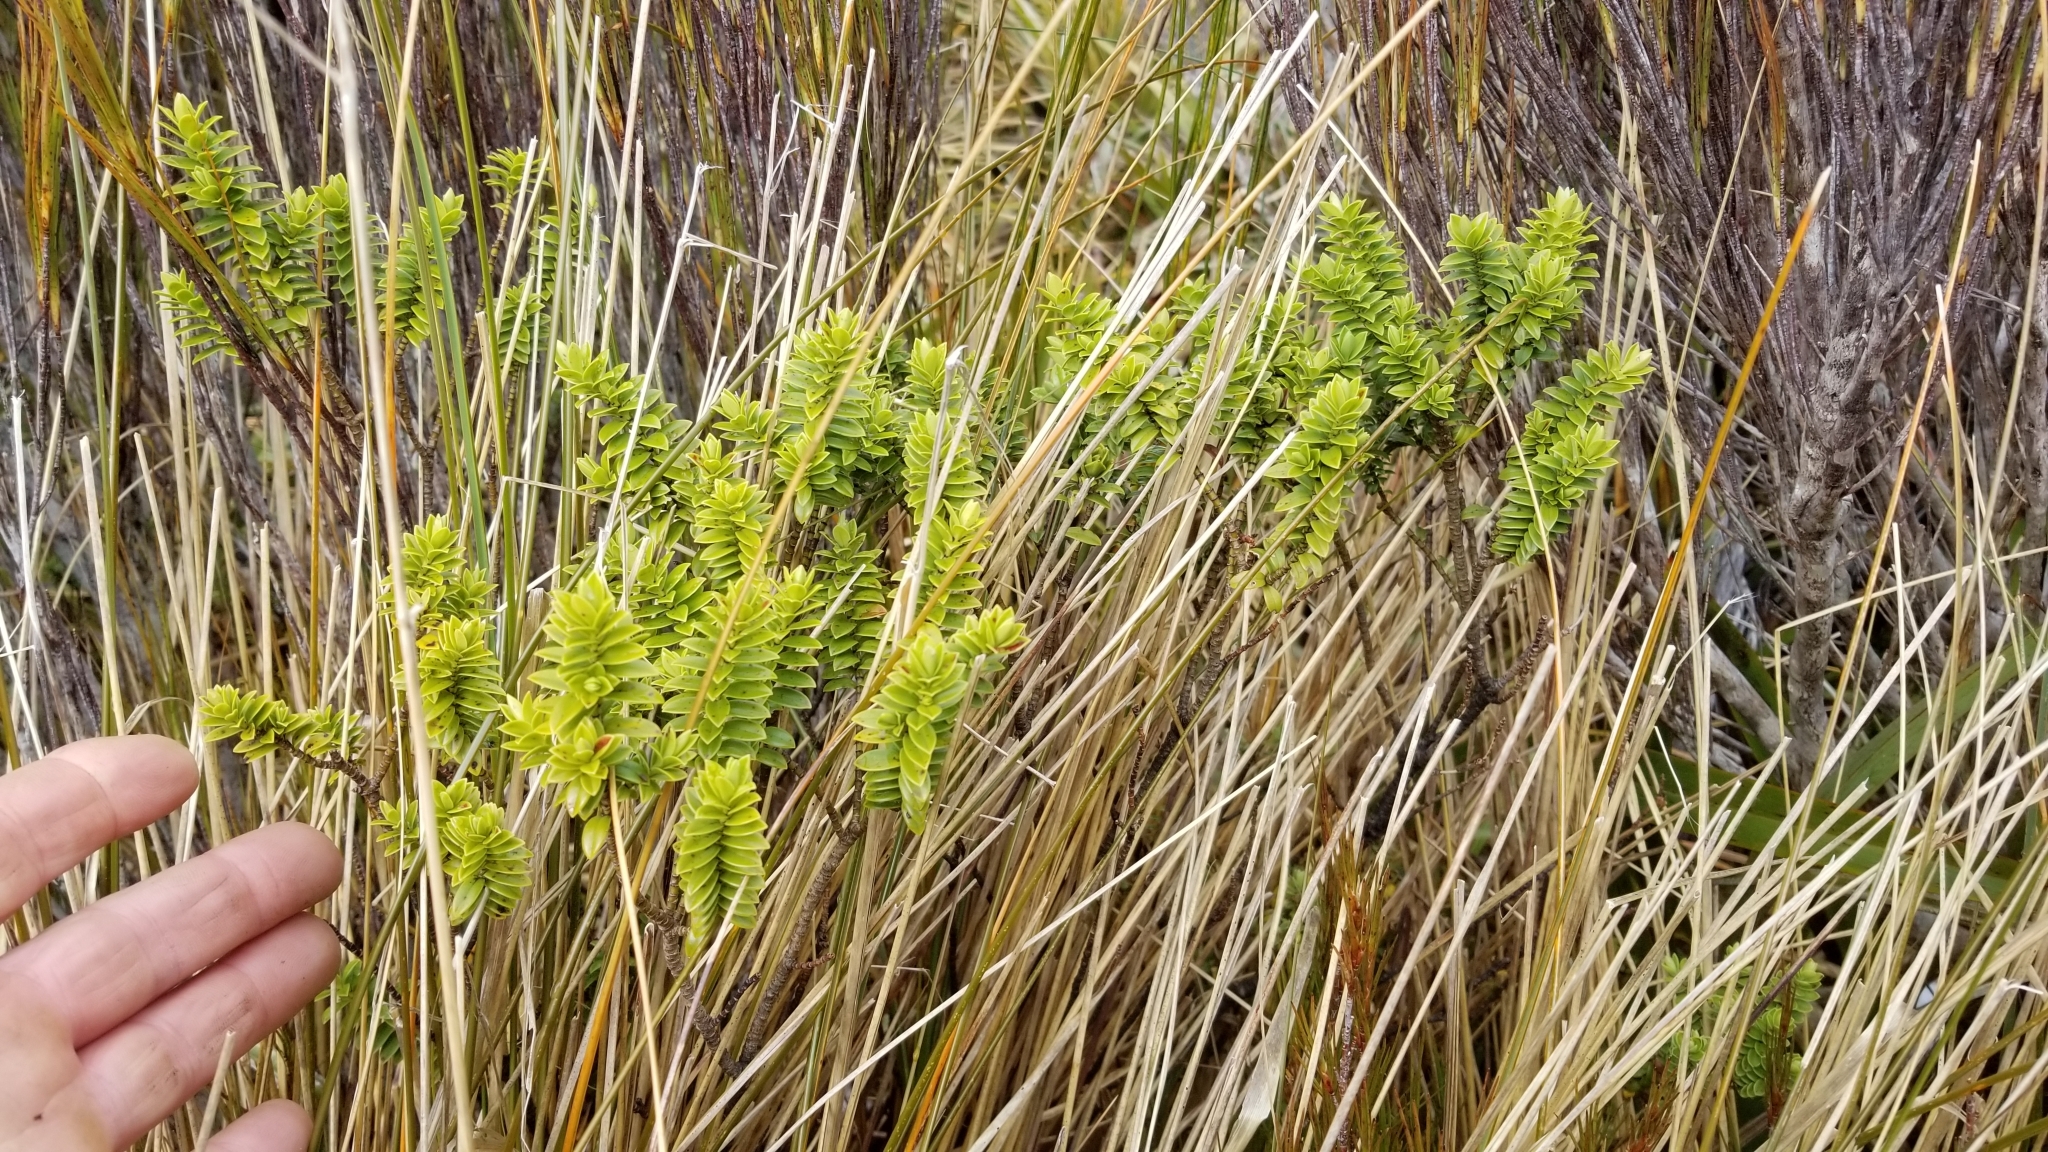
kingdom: Plantae
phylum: Tracheophyta
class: Magnoliopsida
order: Lamiales
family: Plantaginaceae
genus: Veronica
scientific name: Veronica odora
